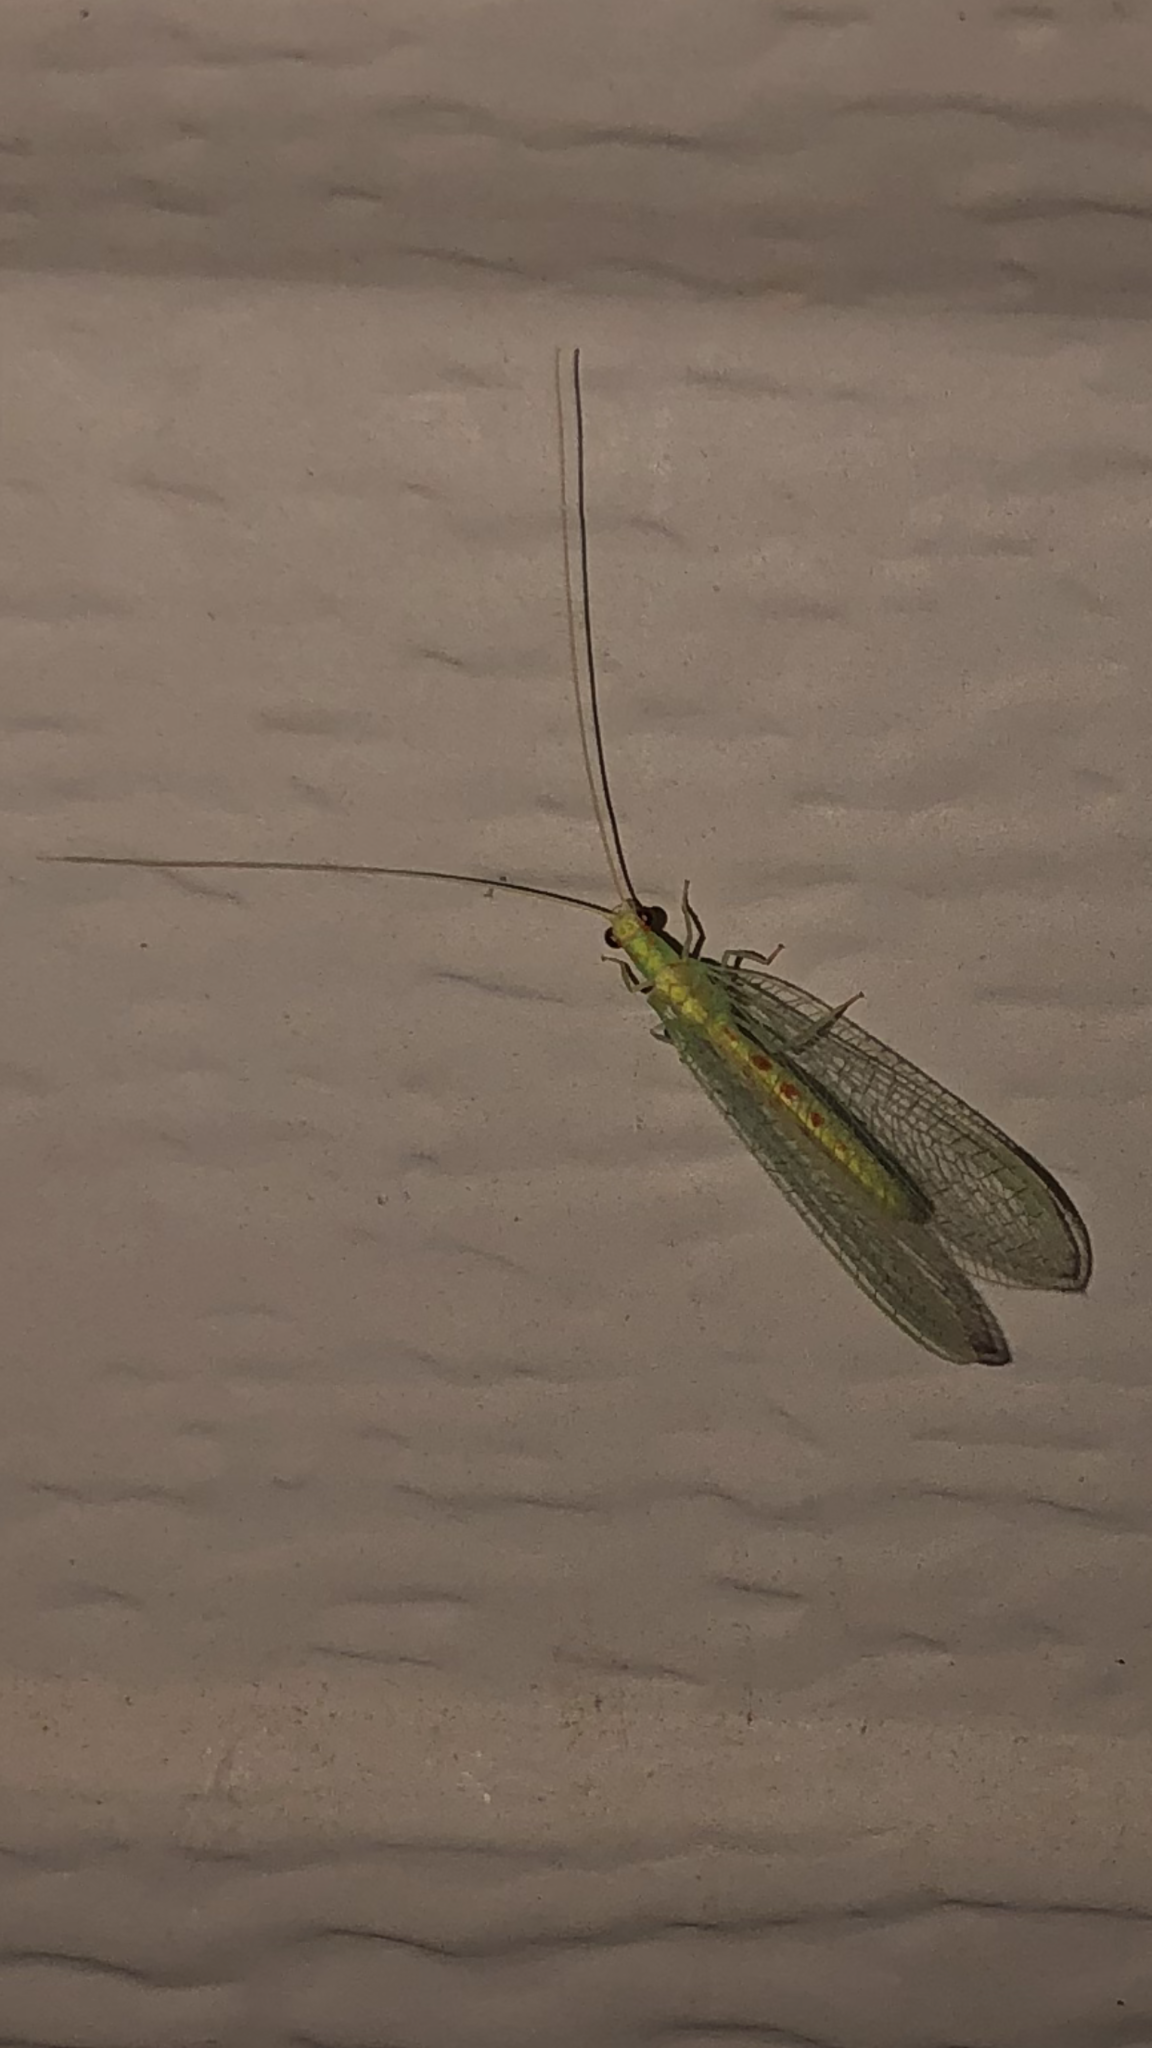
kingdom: Animalia
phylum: Arthropoda
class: Insecta
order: Neuroptera
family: Chrysopidae
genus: Chrysopa
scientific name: Chrysopa quadripunctata
